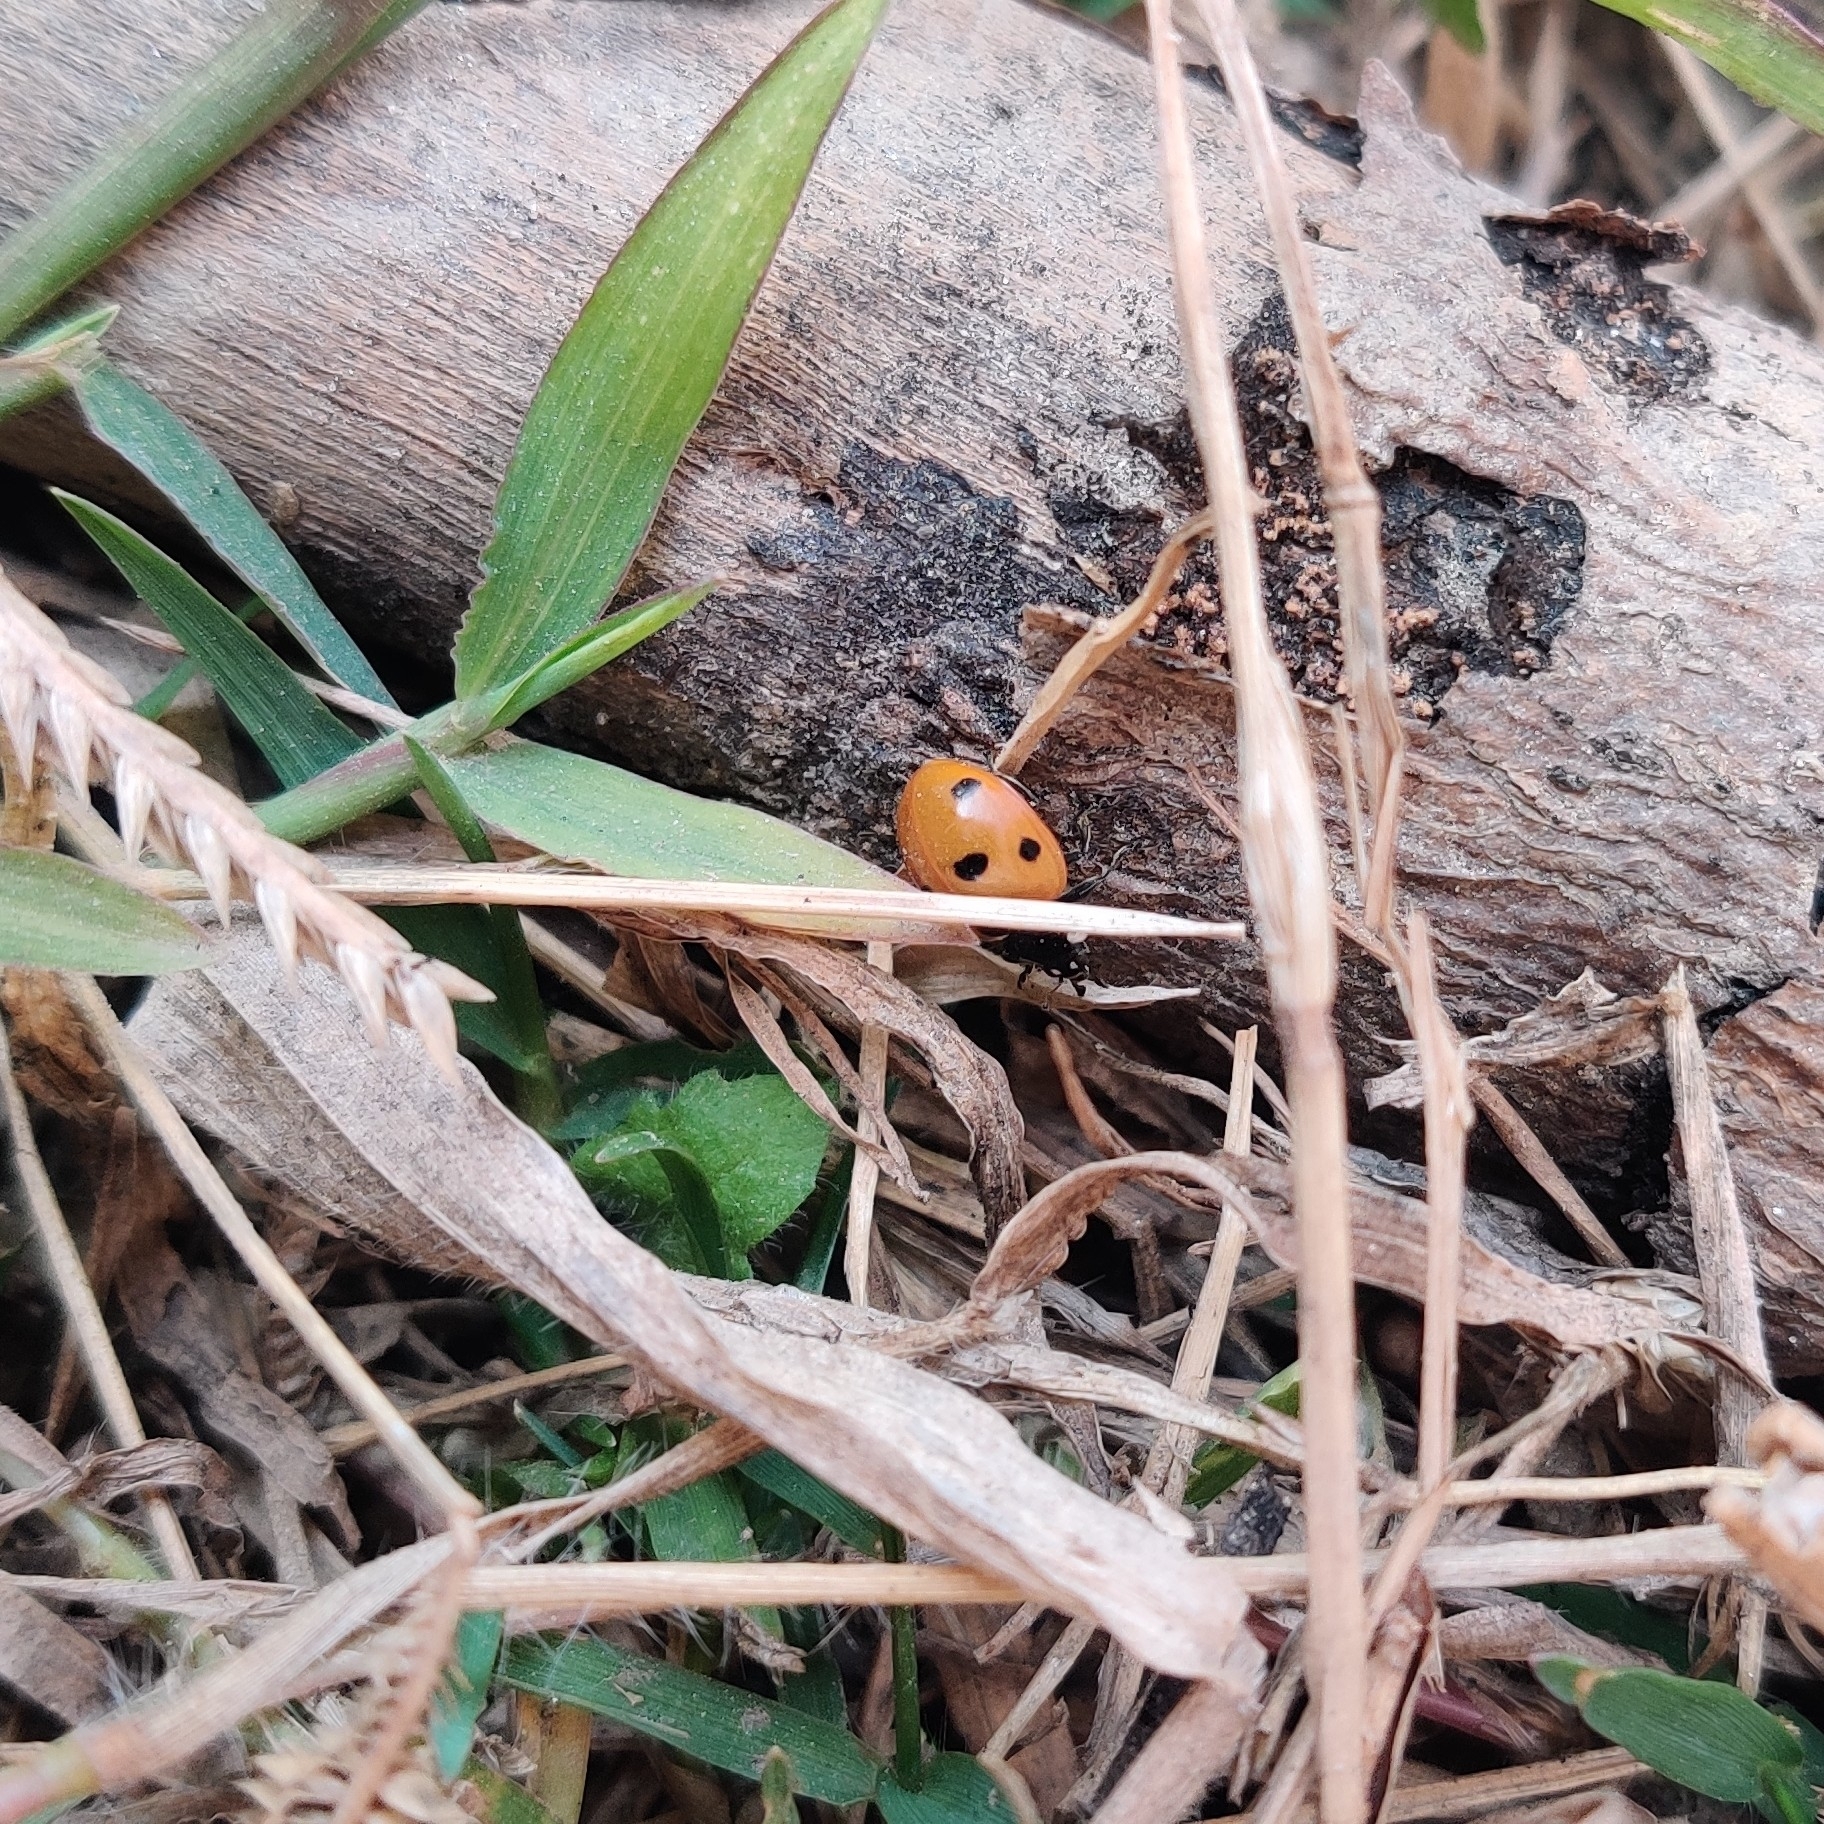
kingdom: Animalia
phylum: Arthropoda
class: Insecta
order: Coleoptera
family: Coccinellidae
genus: Coccinella
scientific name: Coccinella septempunctata
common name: Sevenspotted lady beetle
